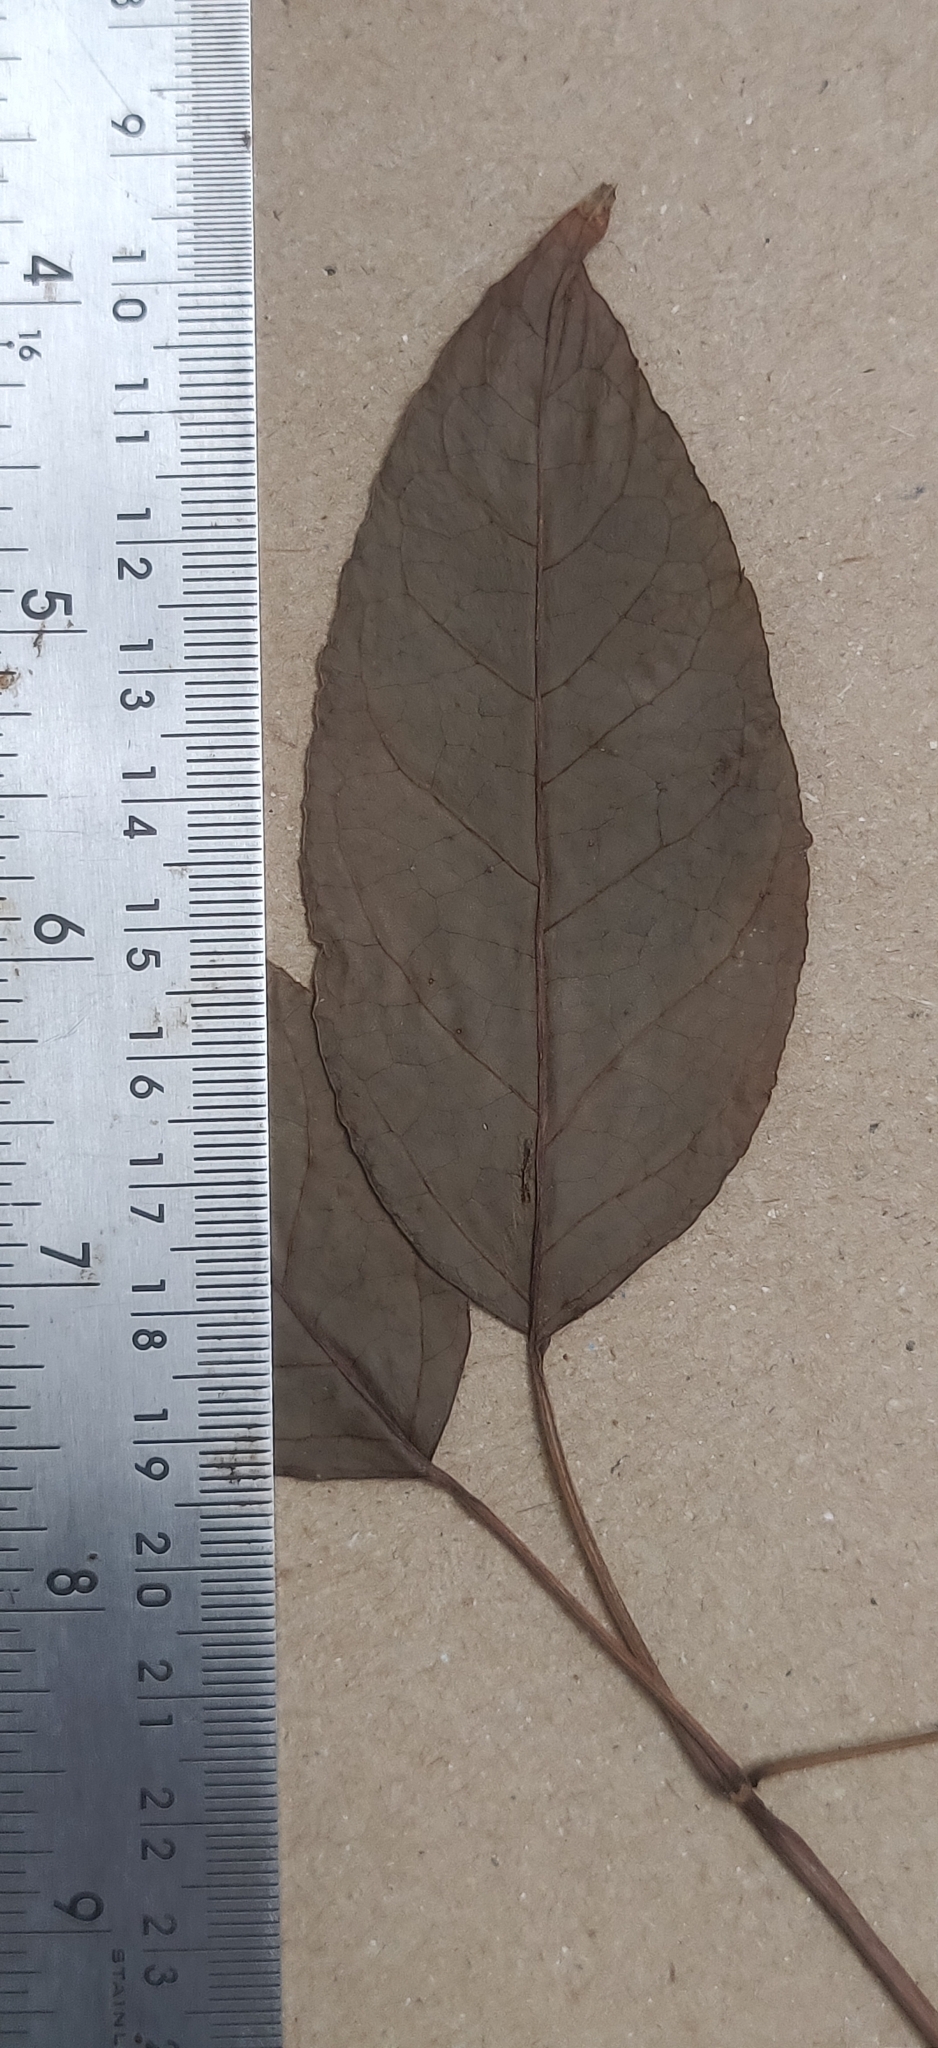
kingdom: Plantae
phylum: Tracheophyta
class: Magnoliopsida
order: Apiales
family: Araliaceae
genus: Heptapleurum
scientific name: Heptapleurum racemosum
